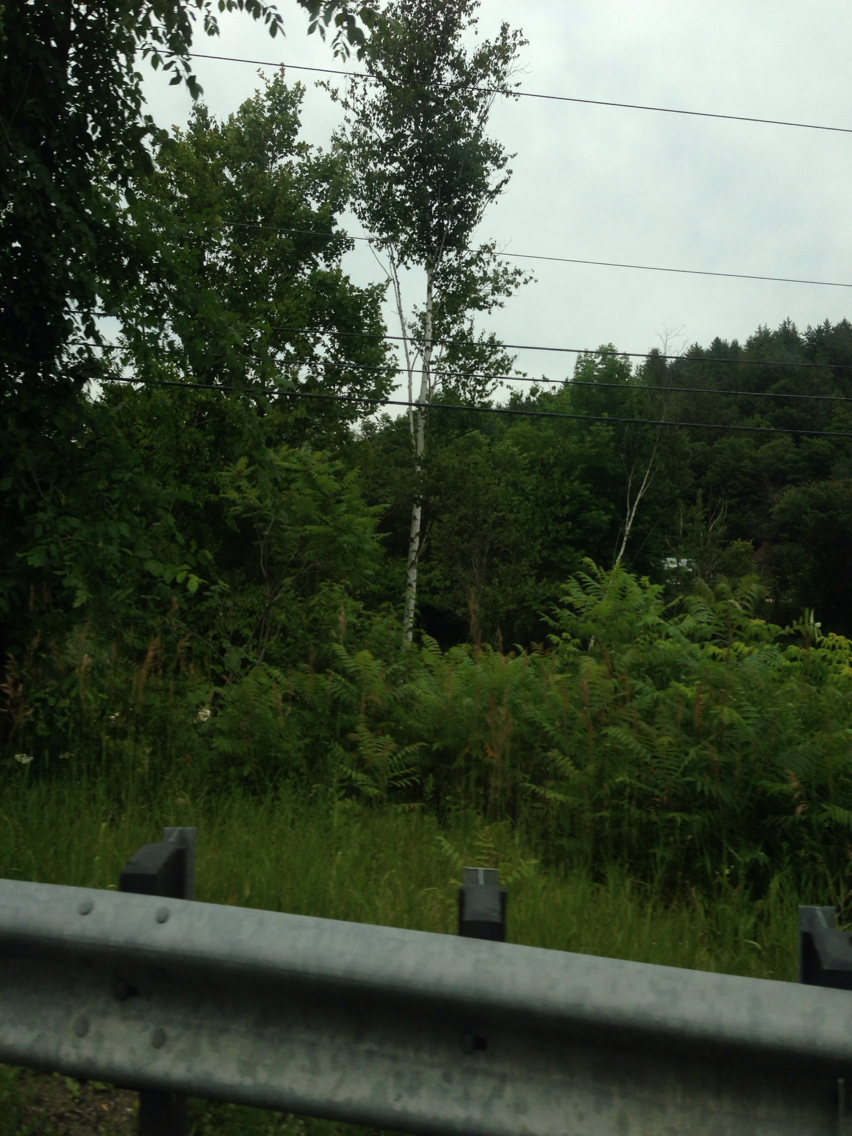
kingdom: Plantae
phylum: Tracheophyta
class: Magnoliopsida
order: Fagales
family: Betulaceae
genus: Betula
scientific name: Betula populifolia
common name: Fire birch
